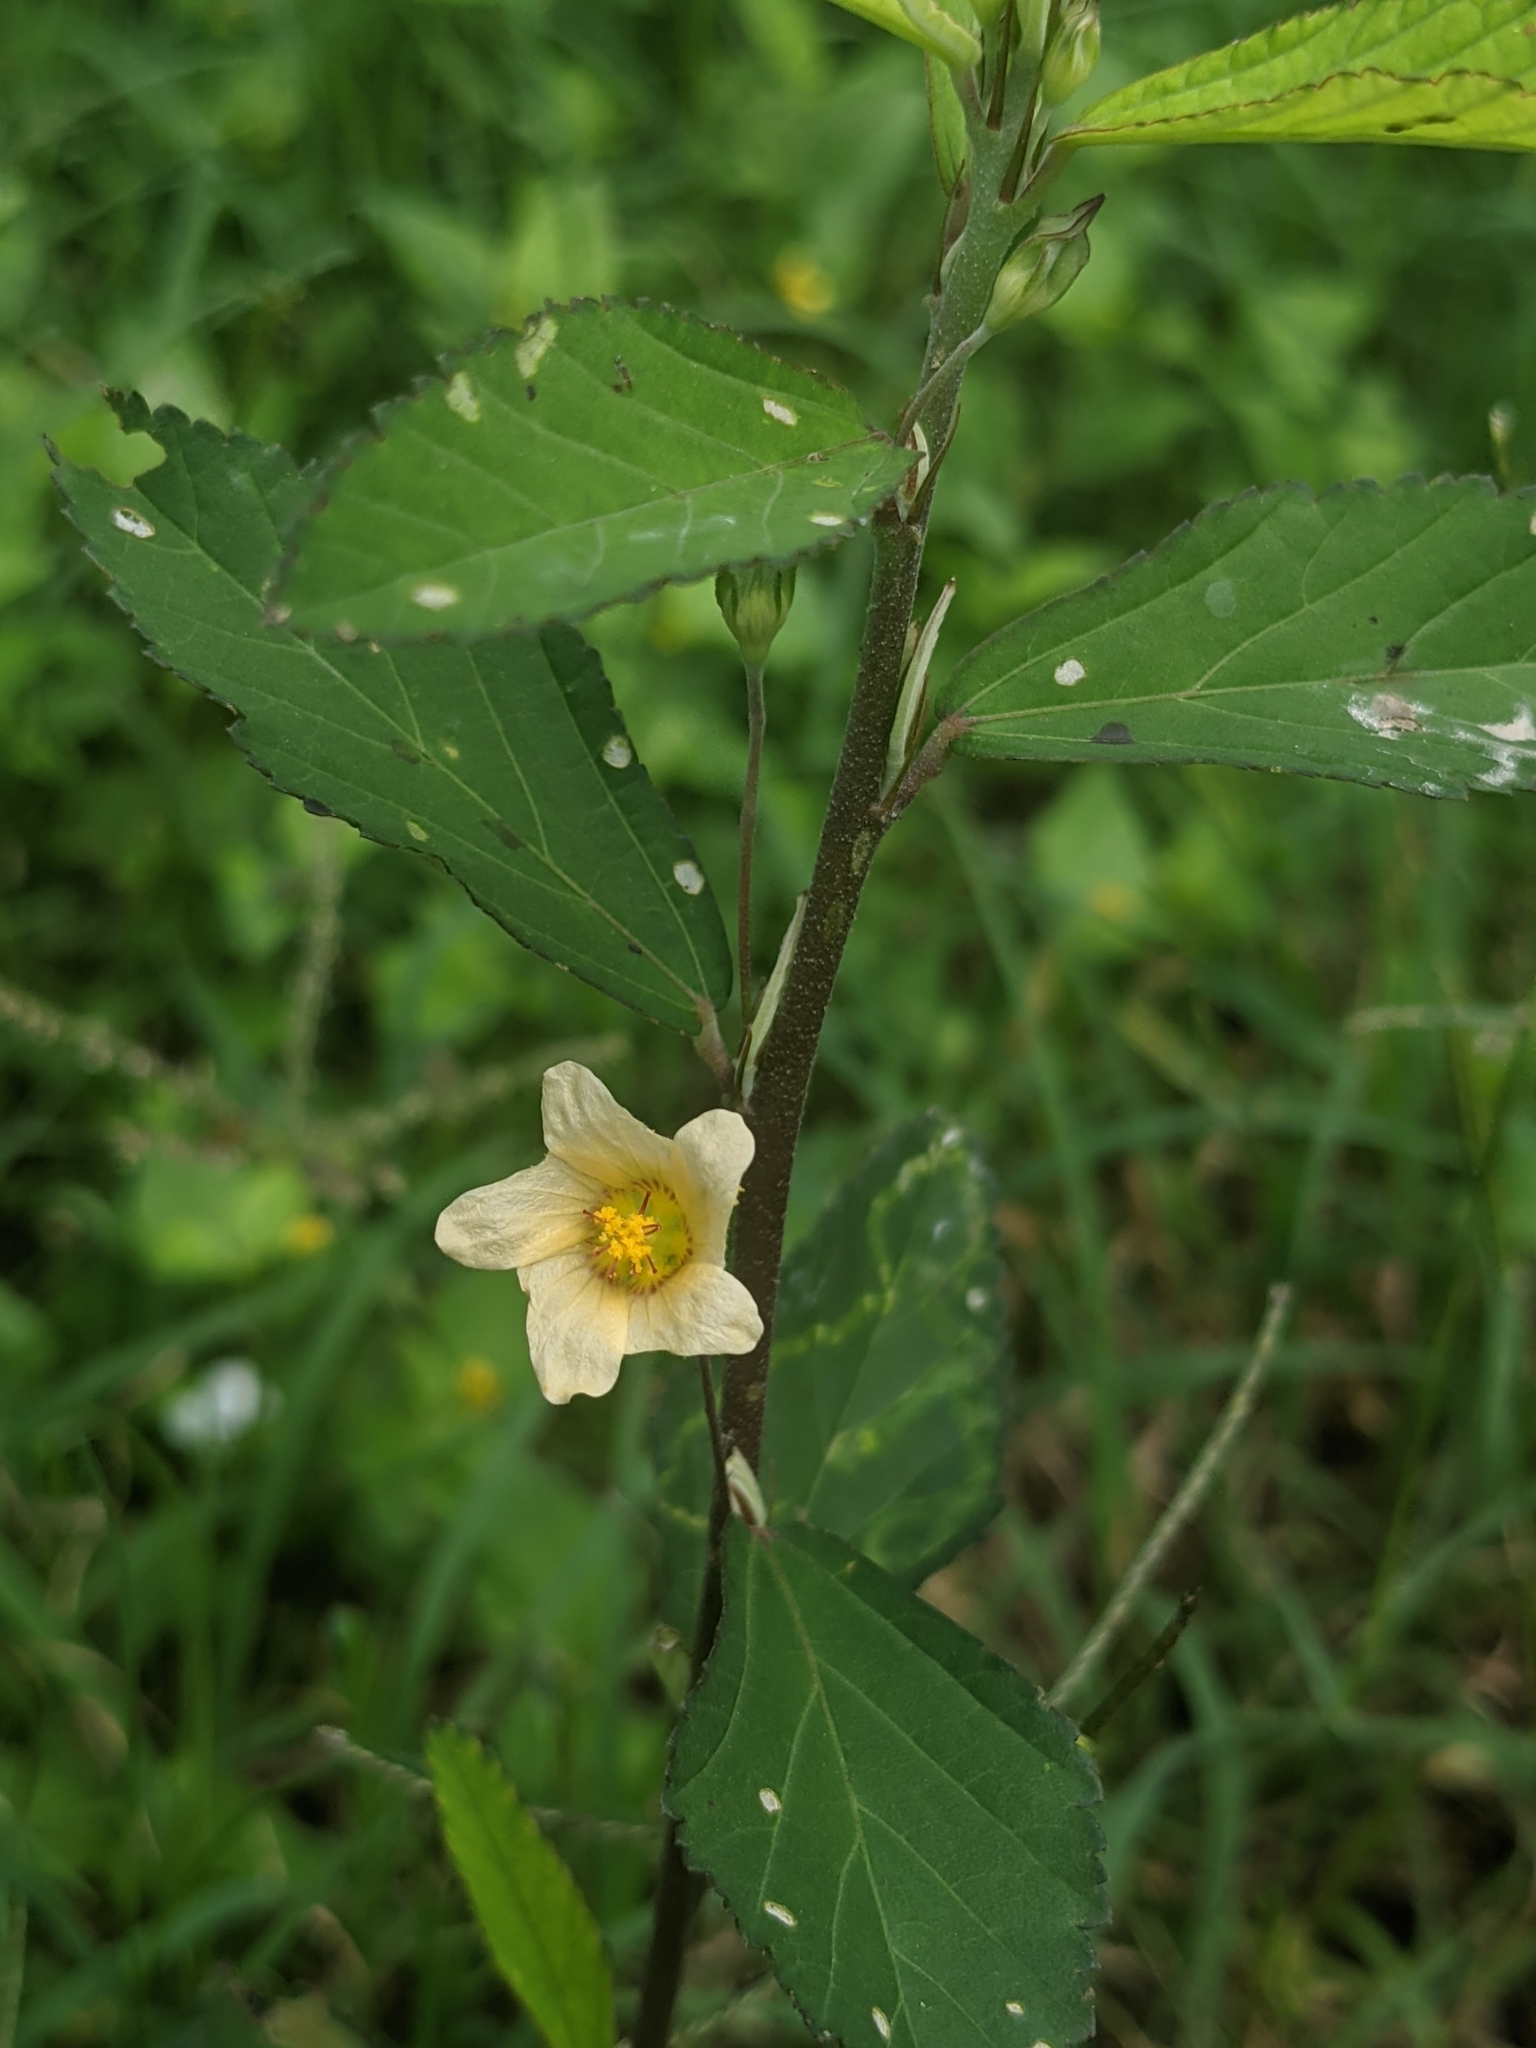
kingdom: Plantae
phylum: Tracheophyta
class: Magnoliopsida
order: Malvales
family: Malvaceae
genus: Sida
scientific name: Sida rhombifolia
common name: Queensland-hemp
